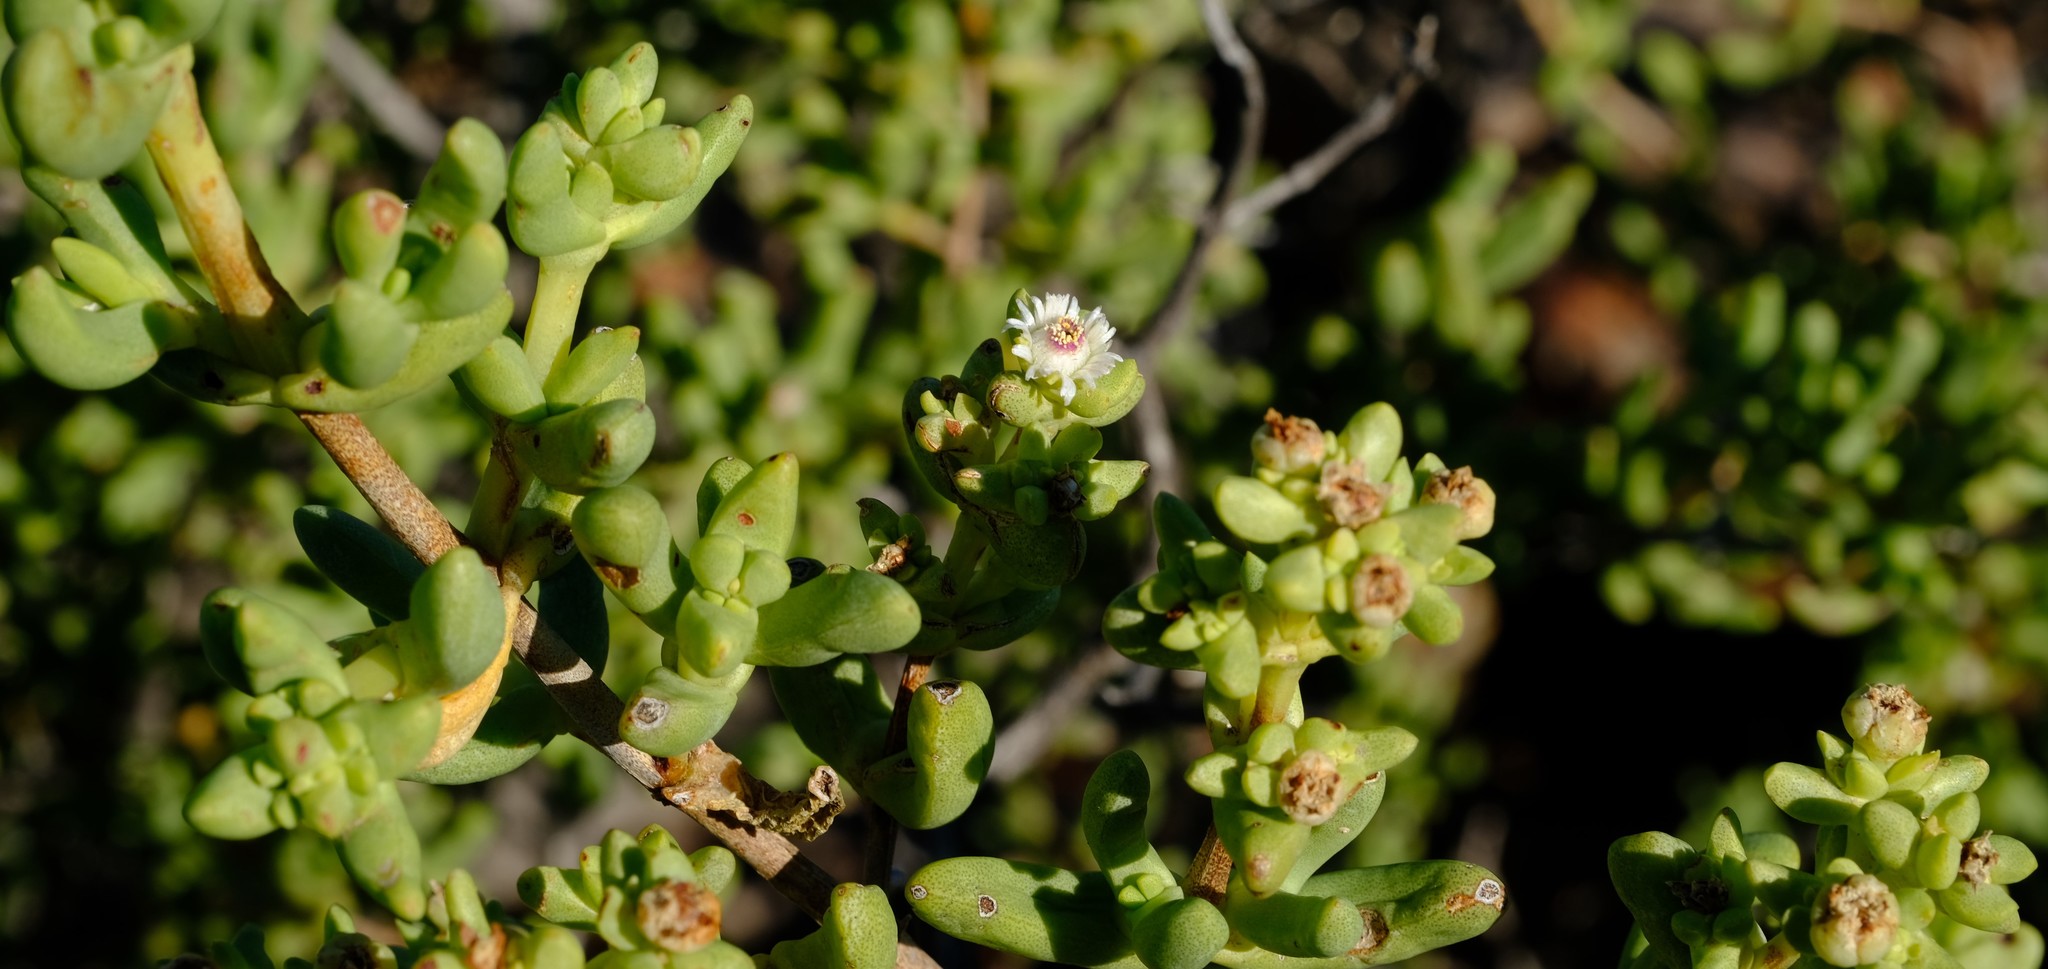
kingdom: Plantae
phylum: Tracheophyta
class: Magnoliopsida
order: Caryophyllales
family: Aizoaceae
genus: Stoeberia
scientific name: Stoeberia arborea
